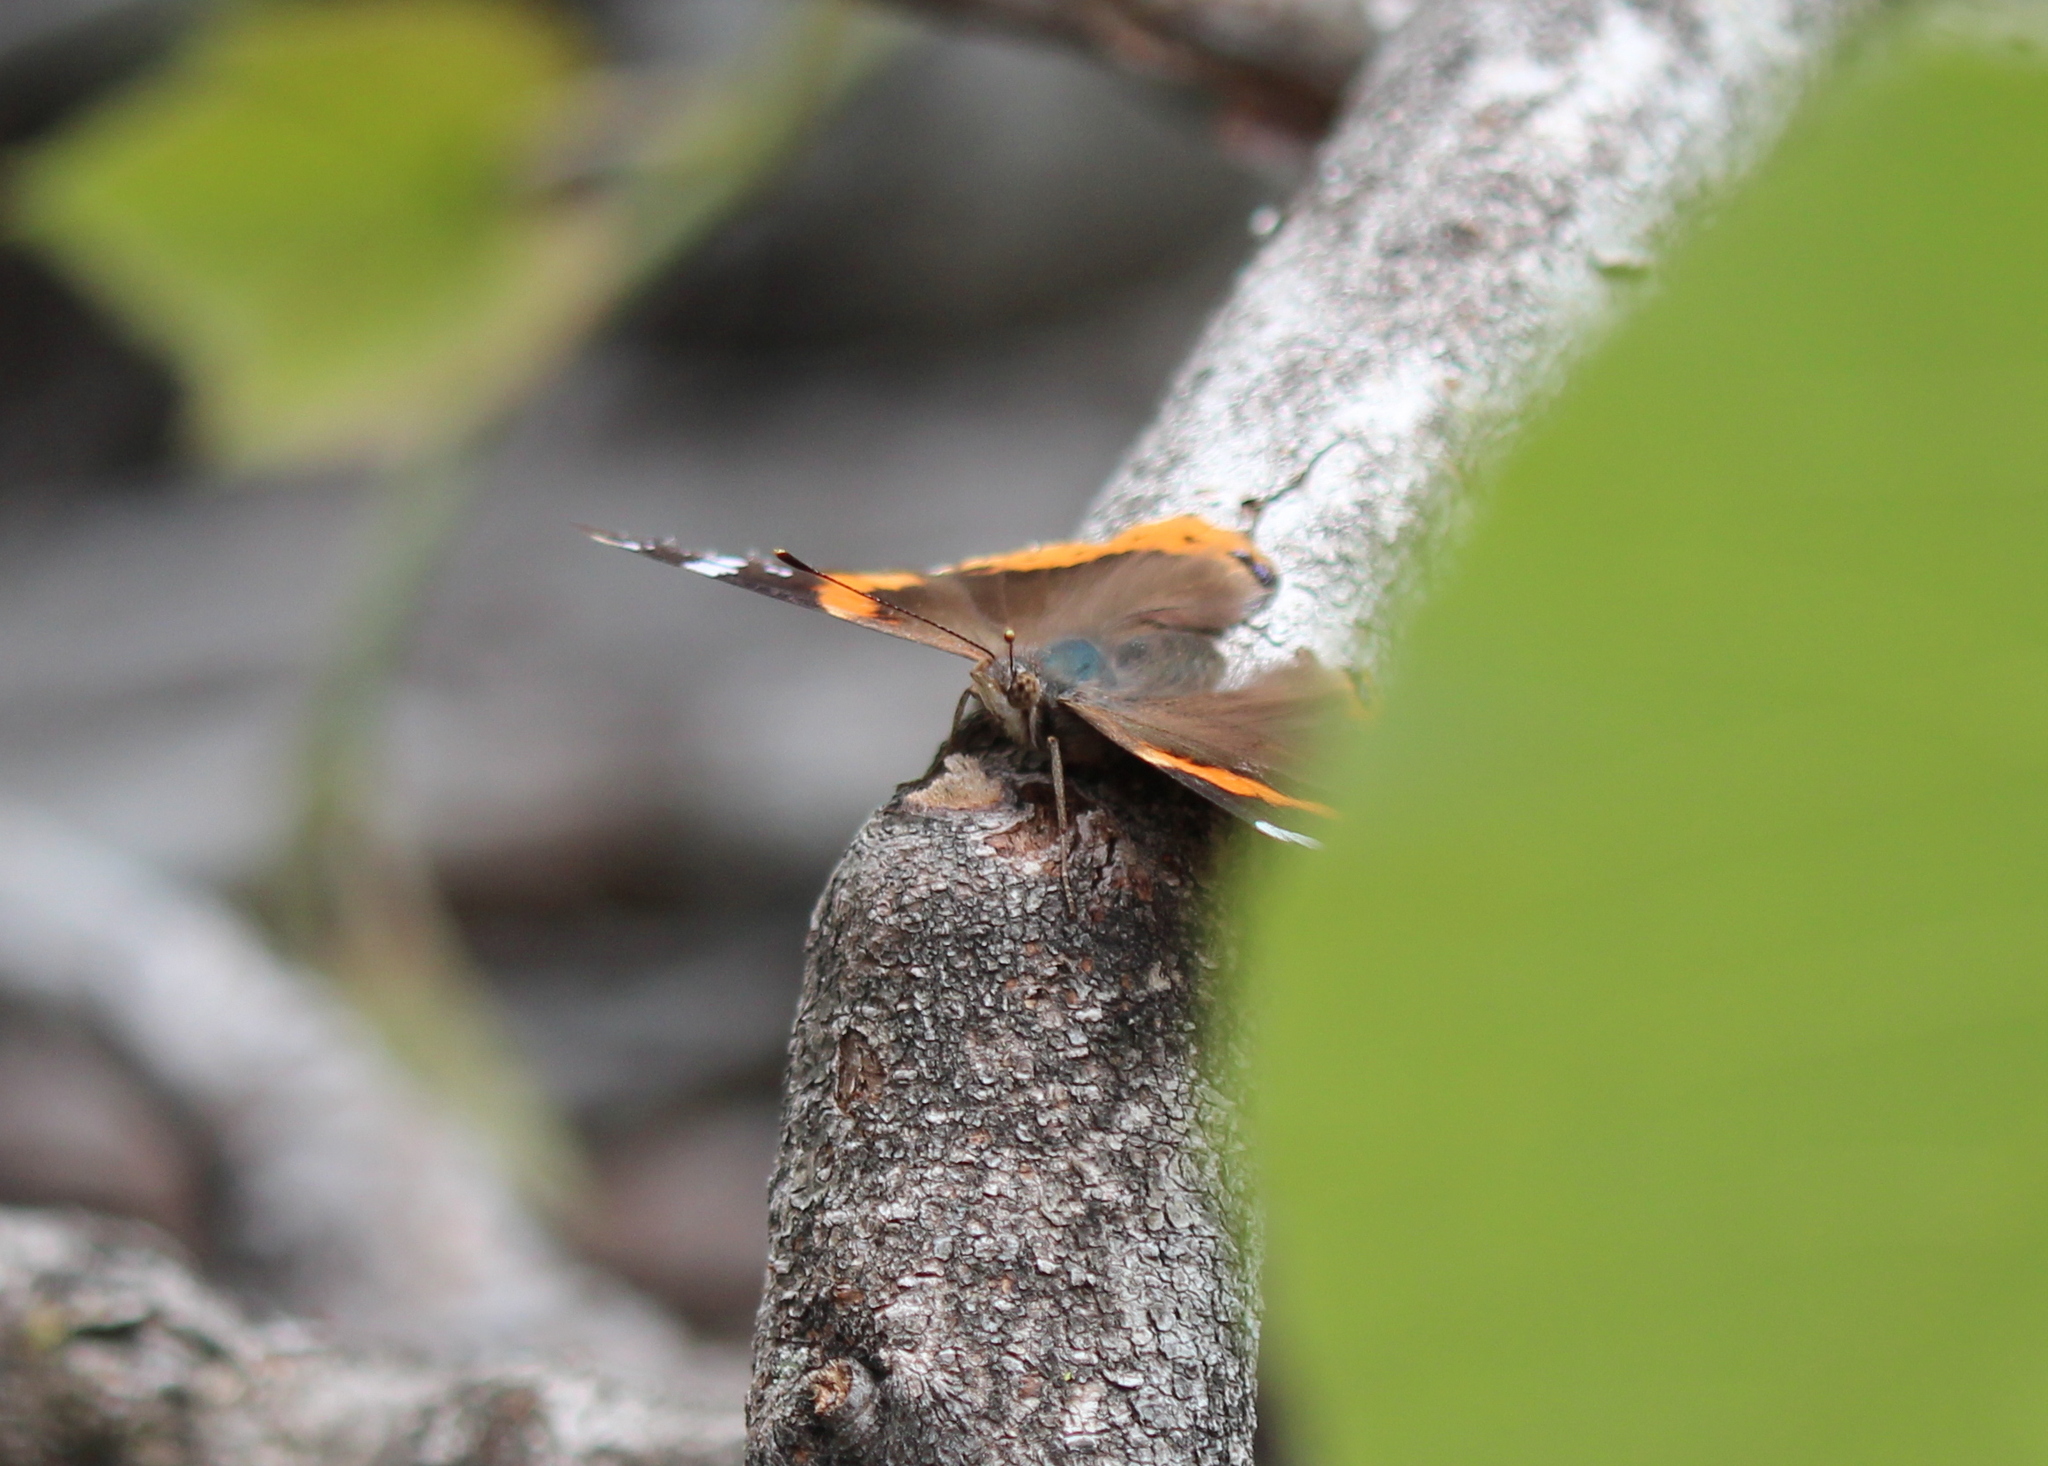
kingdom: Animalia
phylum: Arthropoda
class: Insecta
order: Lepidoptera
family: Nymphalidae
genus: Vanessa
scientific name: Vanessa atalanta
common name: Red admiral
